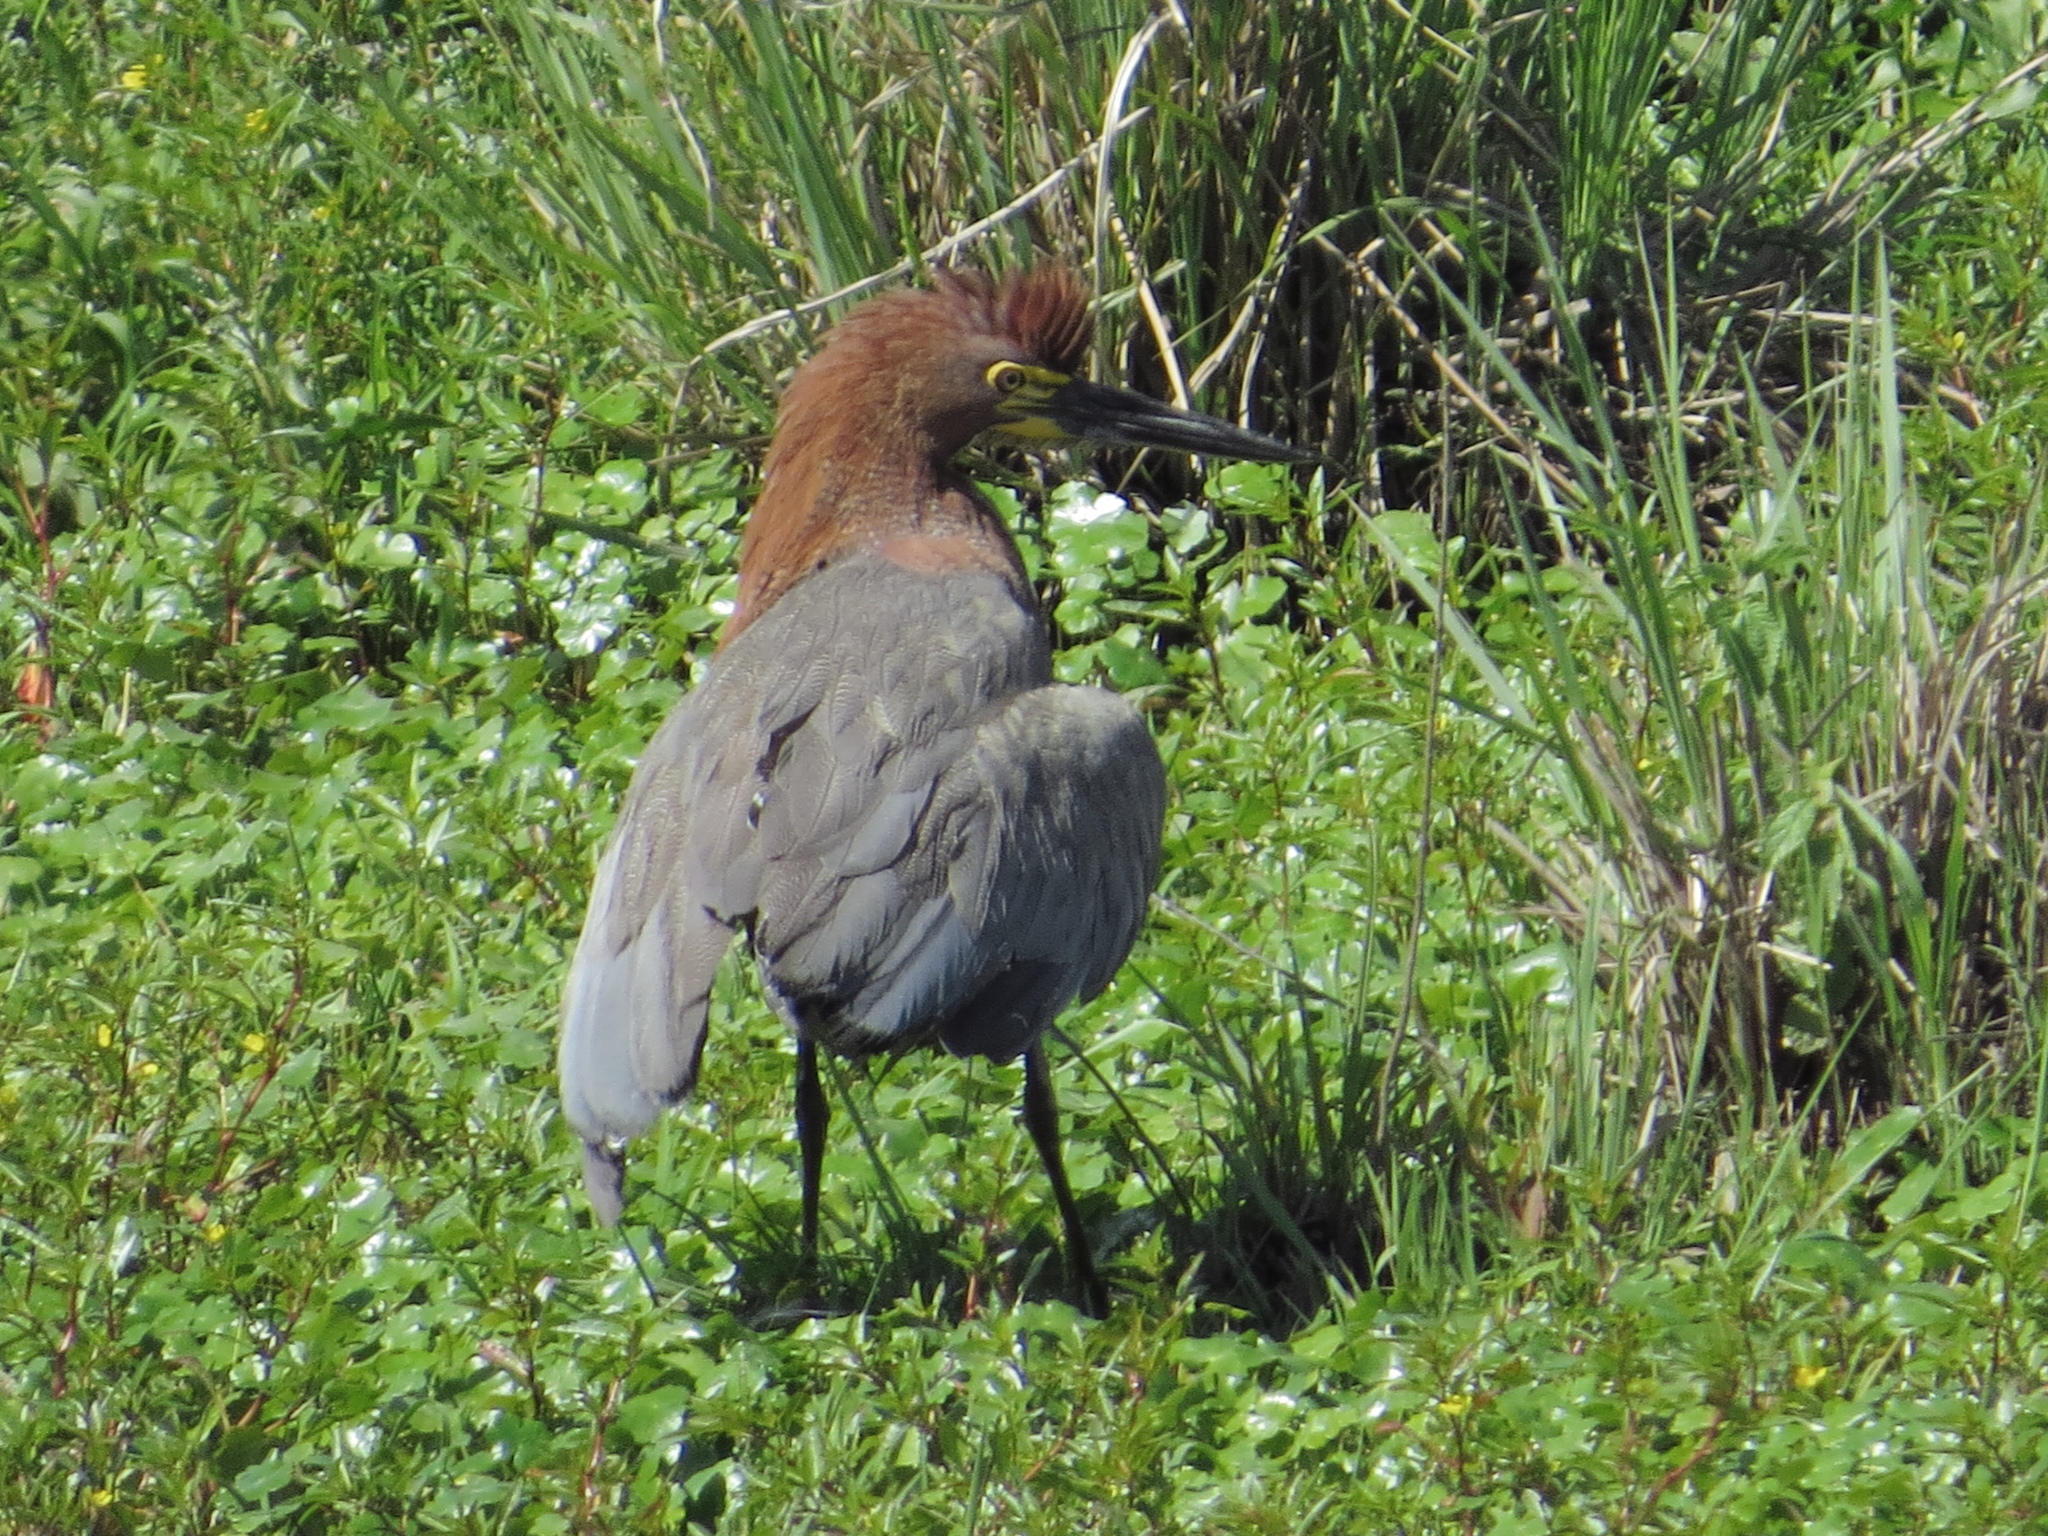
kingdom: Animalia
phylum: Chordata
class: Aves
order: Pelecaniformes
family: Ardeidae
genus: Tigrisoma
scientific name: Tigrisoma lineatum
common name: Rufescent tiger-heron
